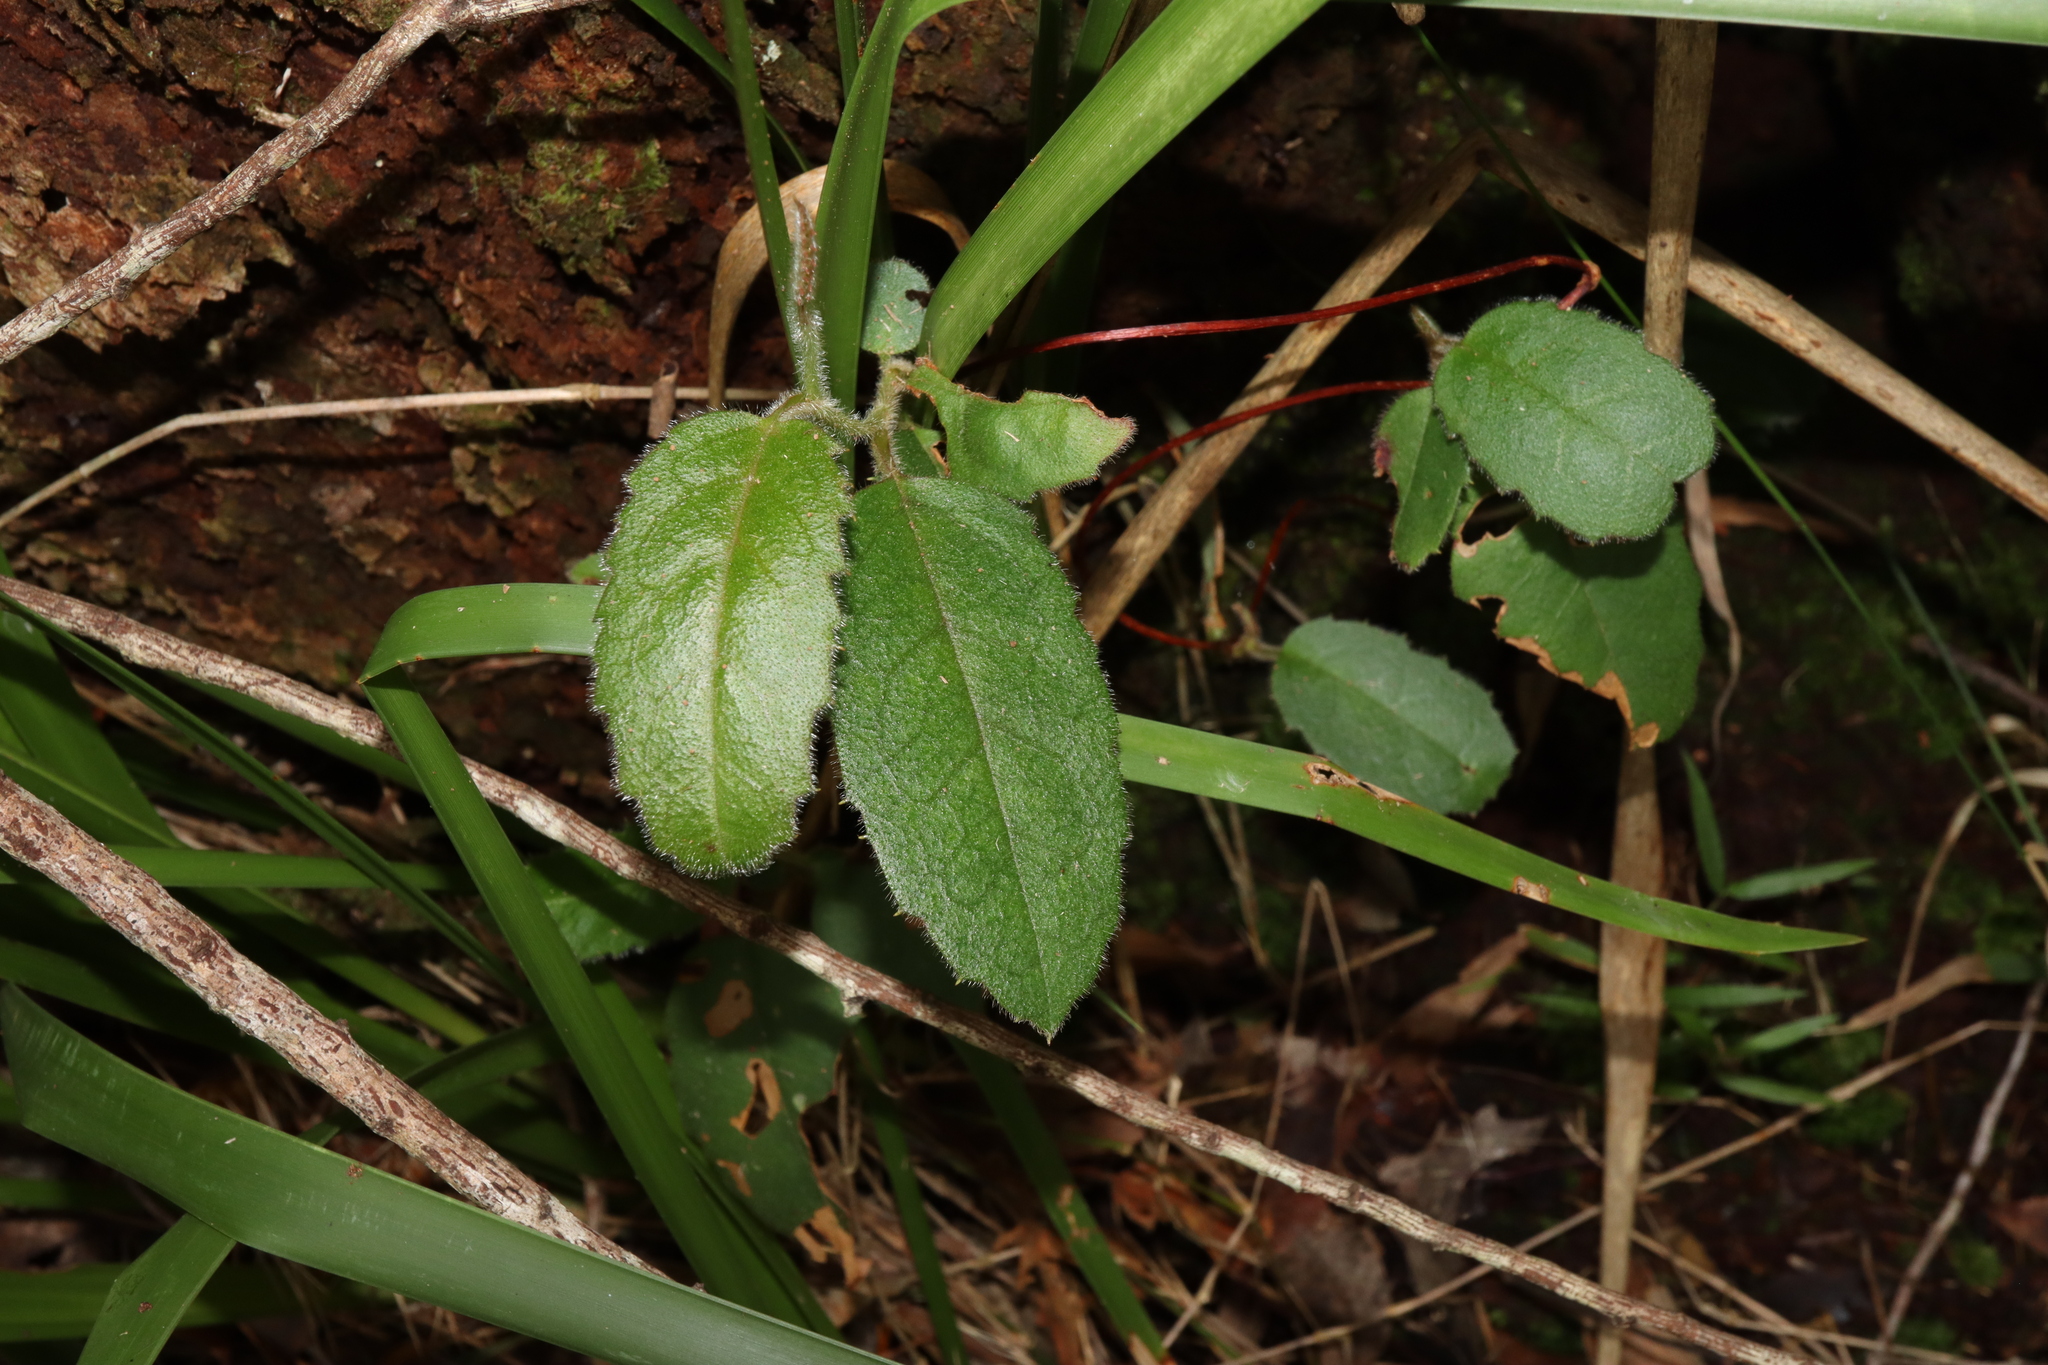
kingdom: Plantae
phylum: Tracheophyta
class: Magnoliopsida
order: Dilleniales
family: Dilleniaceae
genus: Hibbertia
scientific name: Hibbertia dentata
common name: Trailing guinea-flower
